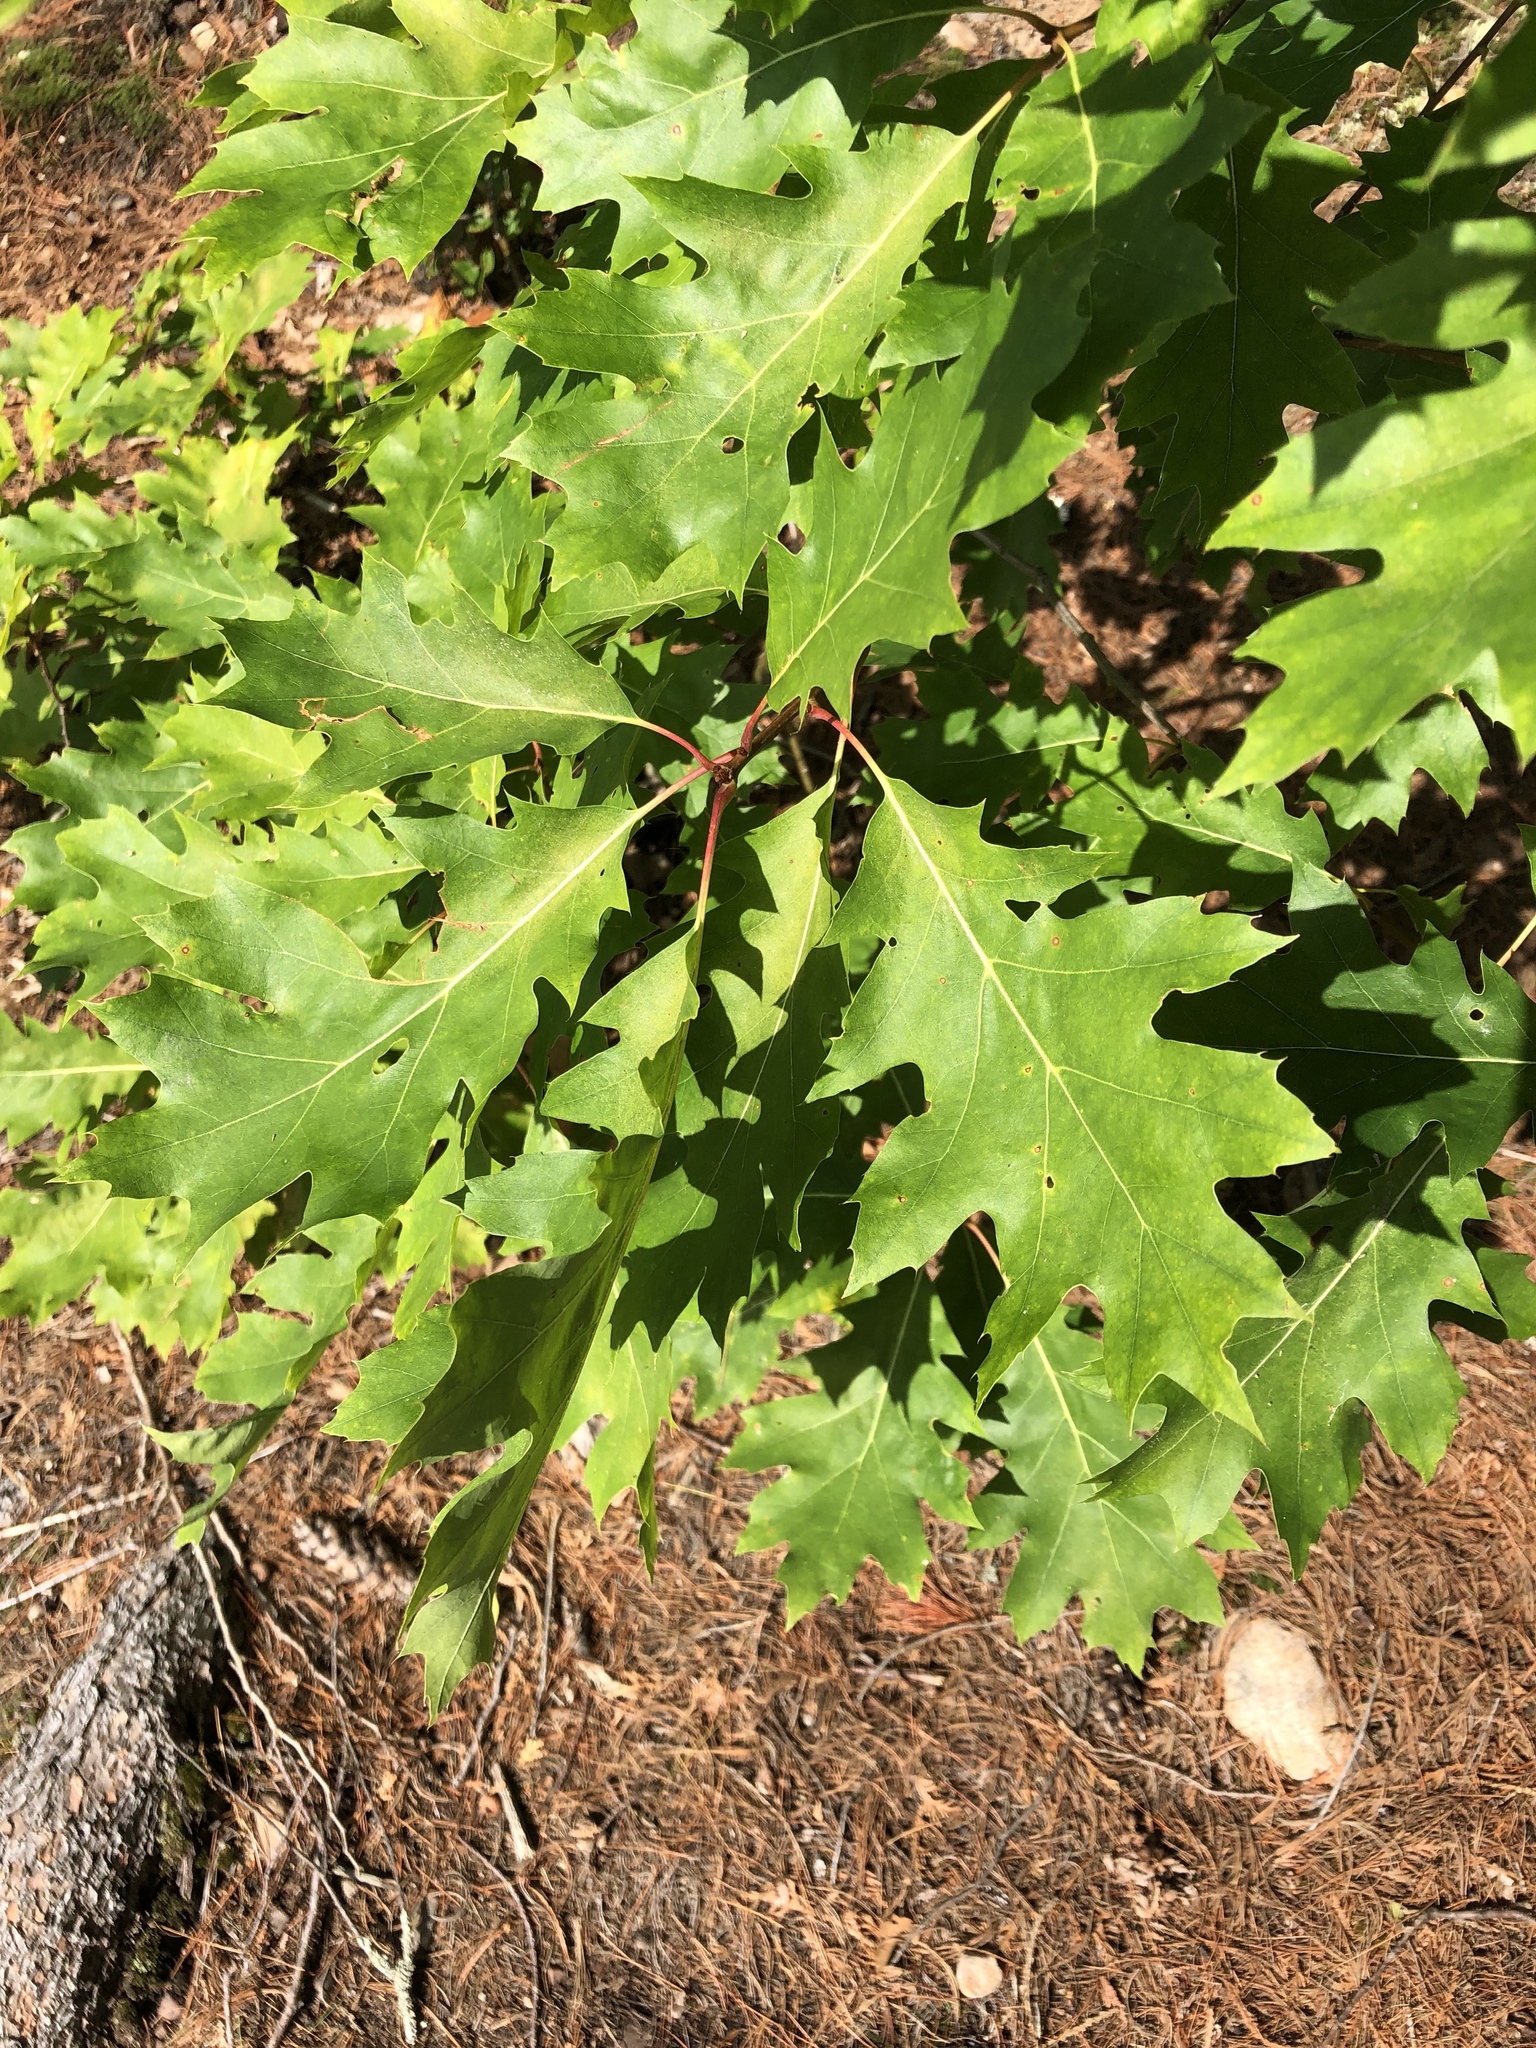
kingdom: Plantae
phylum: Tracheophyta
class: Magnoliopsida
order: Fagales
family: Fagaceae
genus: Quercus
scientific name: Quercus rubra
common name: Red oak
